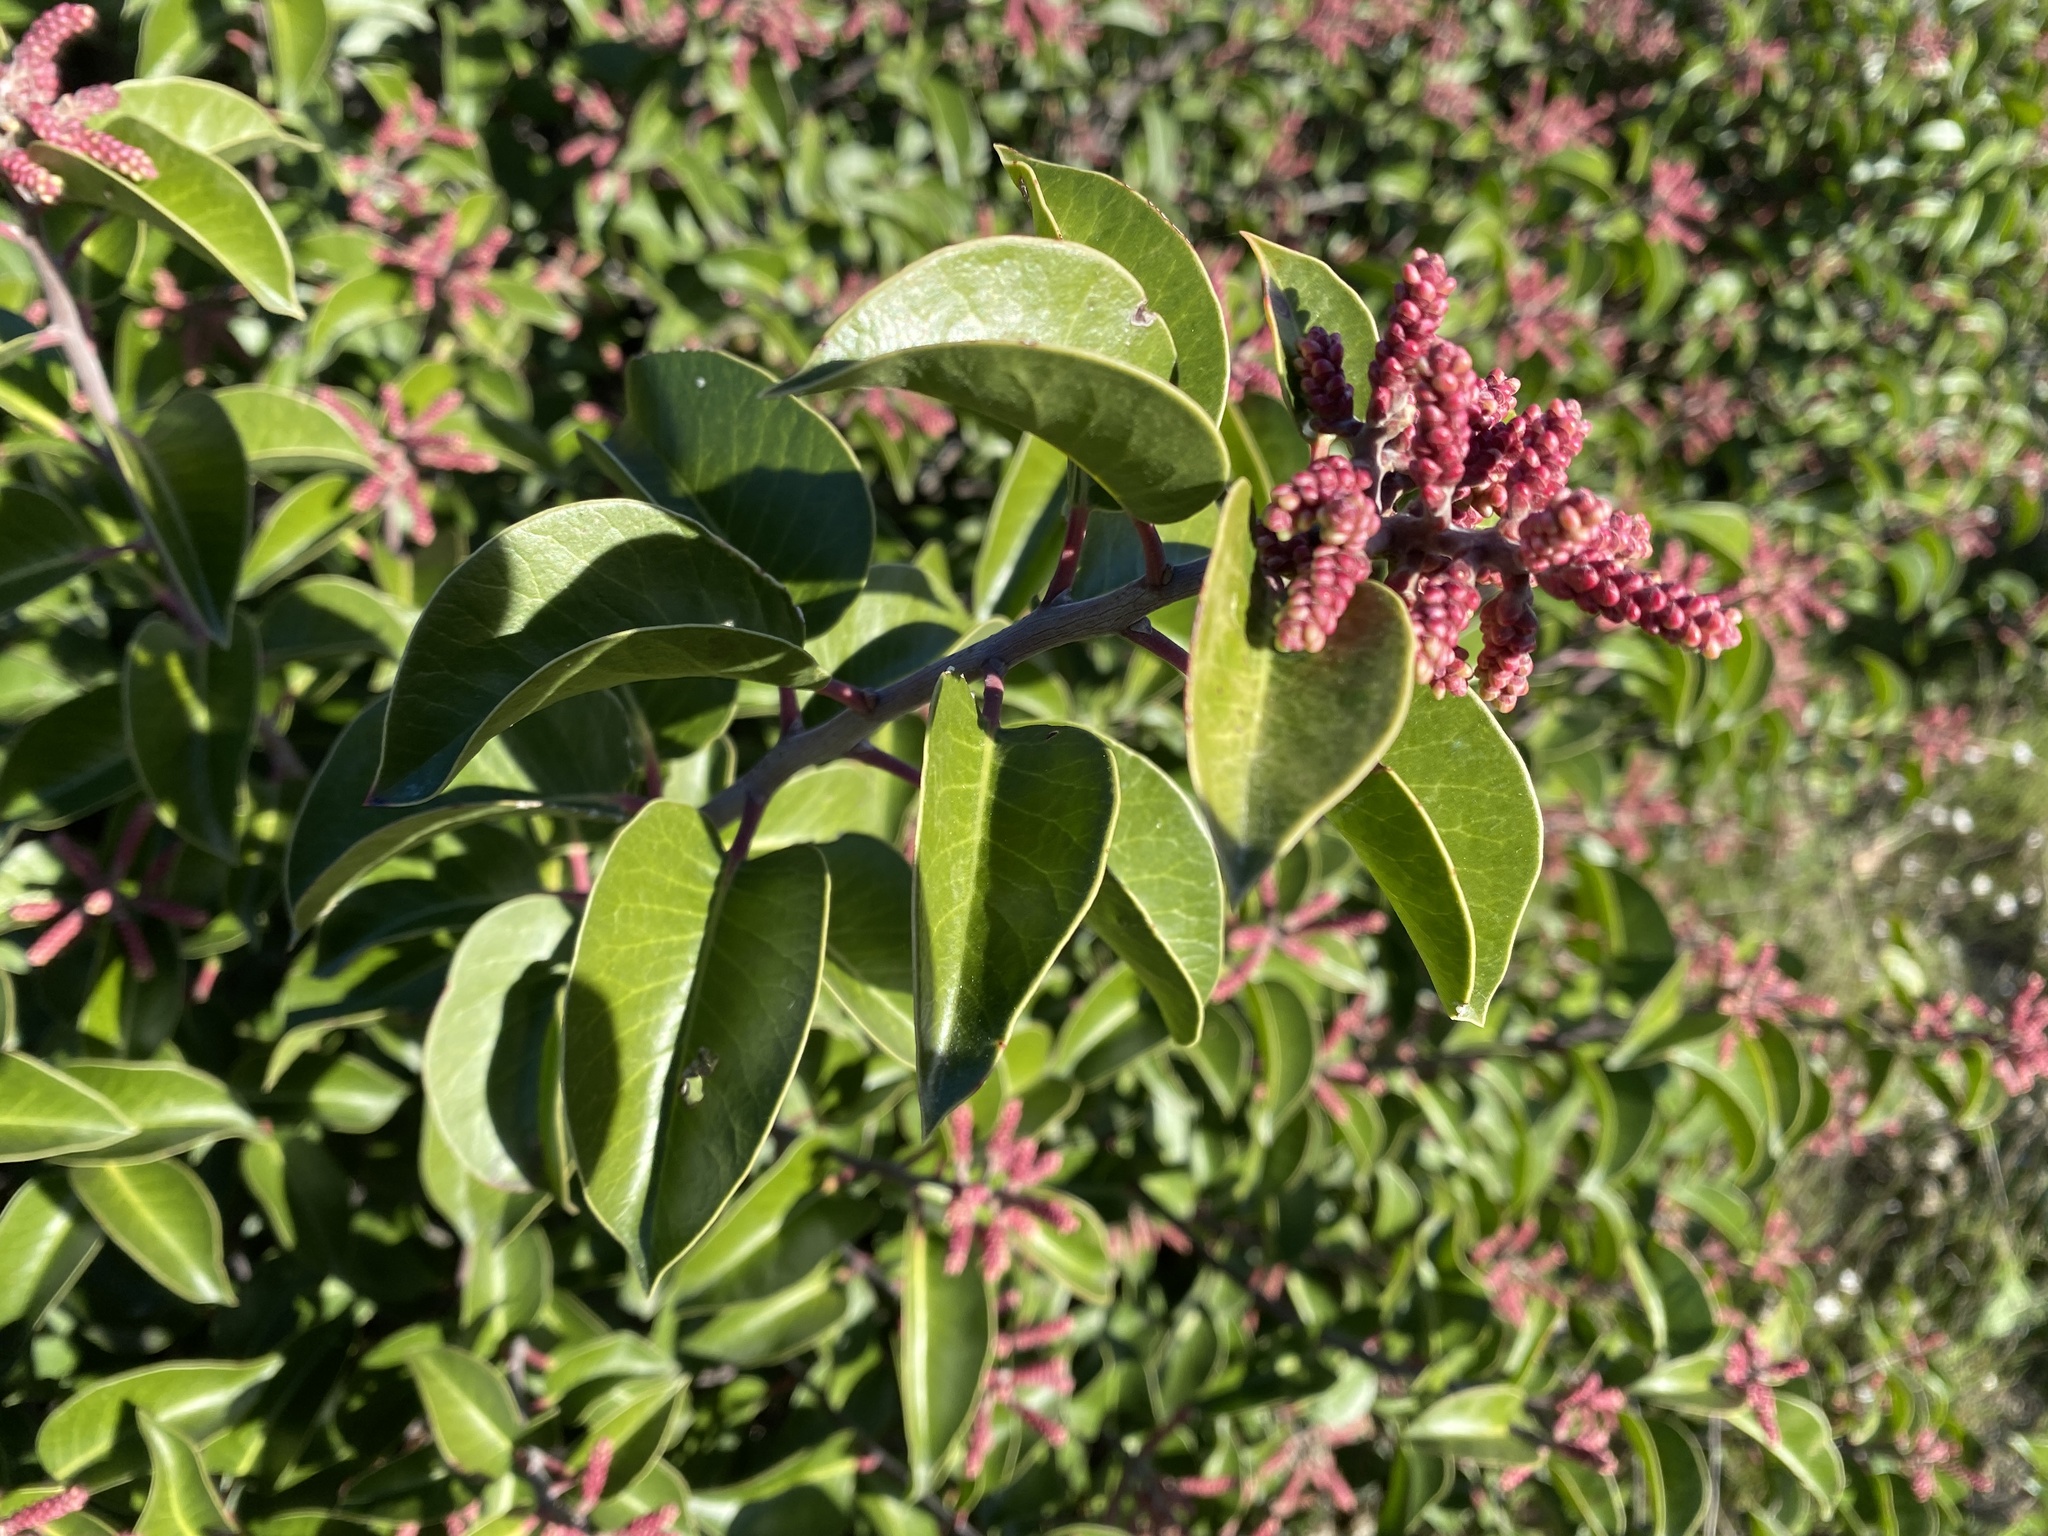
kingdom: Plantae
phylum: Tracheophyta
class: Magnoliopsida
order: Sapindales
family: Anacardiaceae
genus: Rhus
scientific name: Rhus ovata
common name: Sugar sumac
